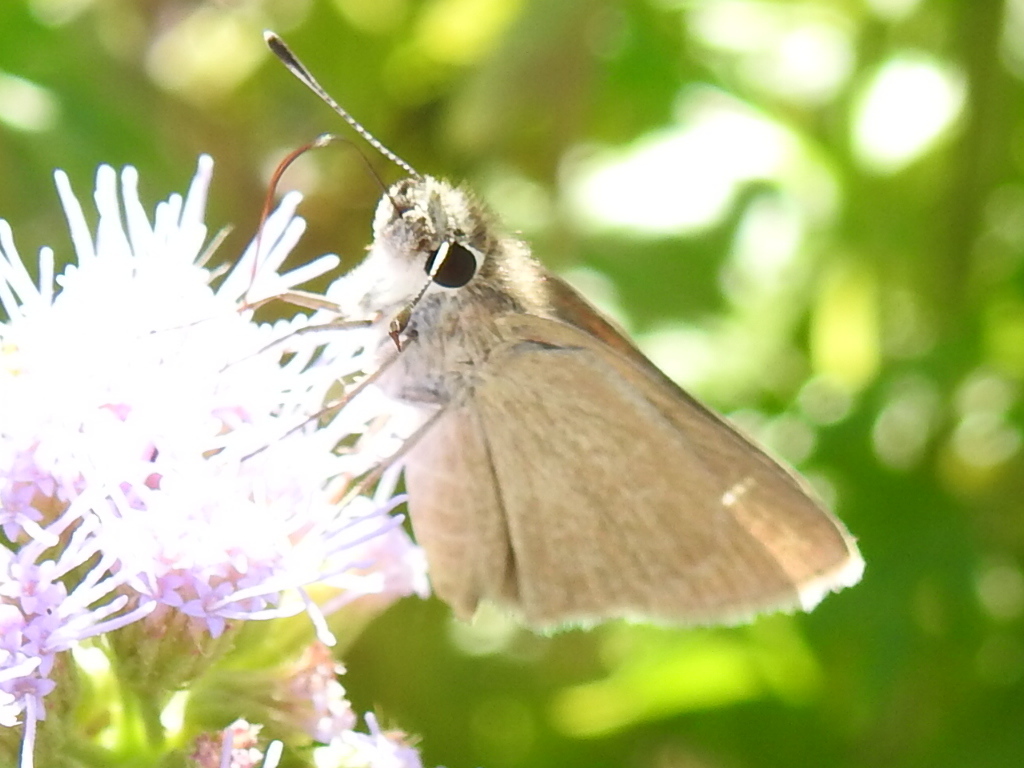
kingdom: Animalia
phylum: Arthropoda
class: Insecta
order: Lepidoptera
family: Hesperiidae
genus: Lerodea
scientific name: Lerodea eufala
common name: Eufala skipper
